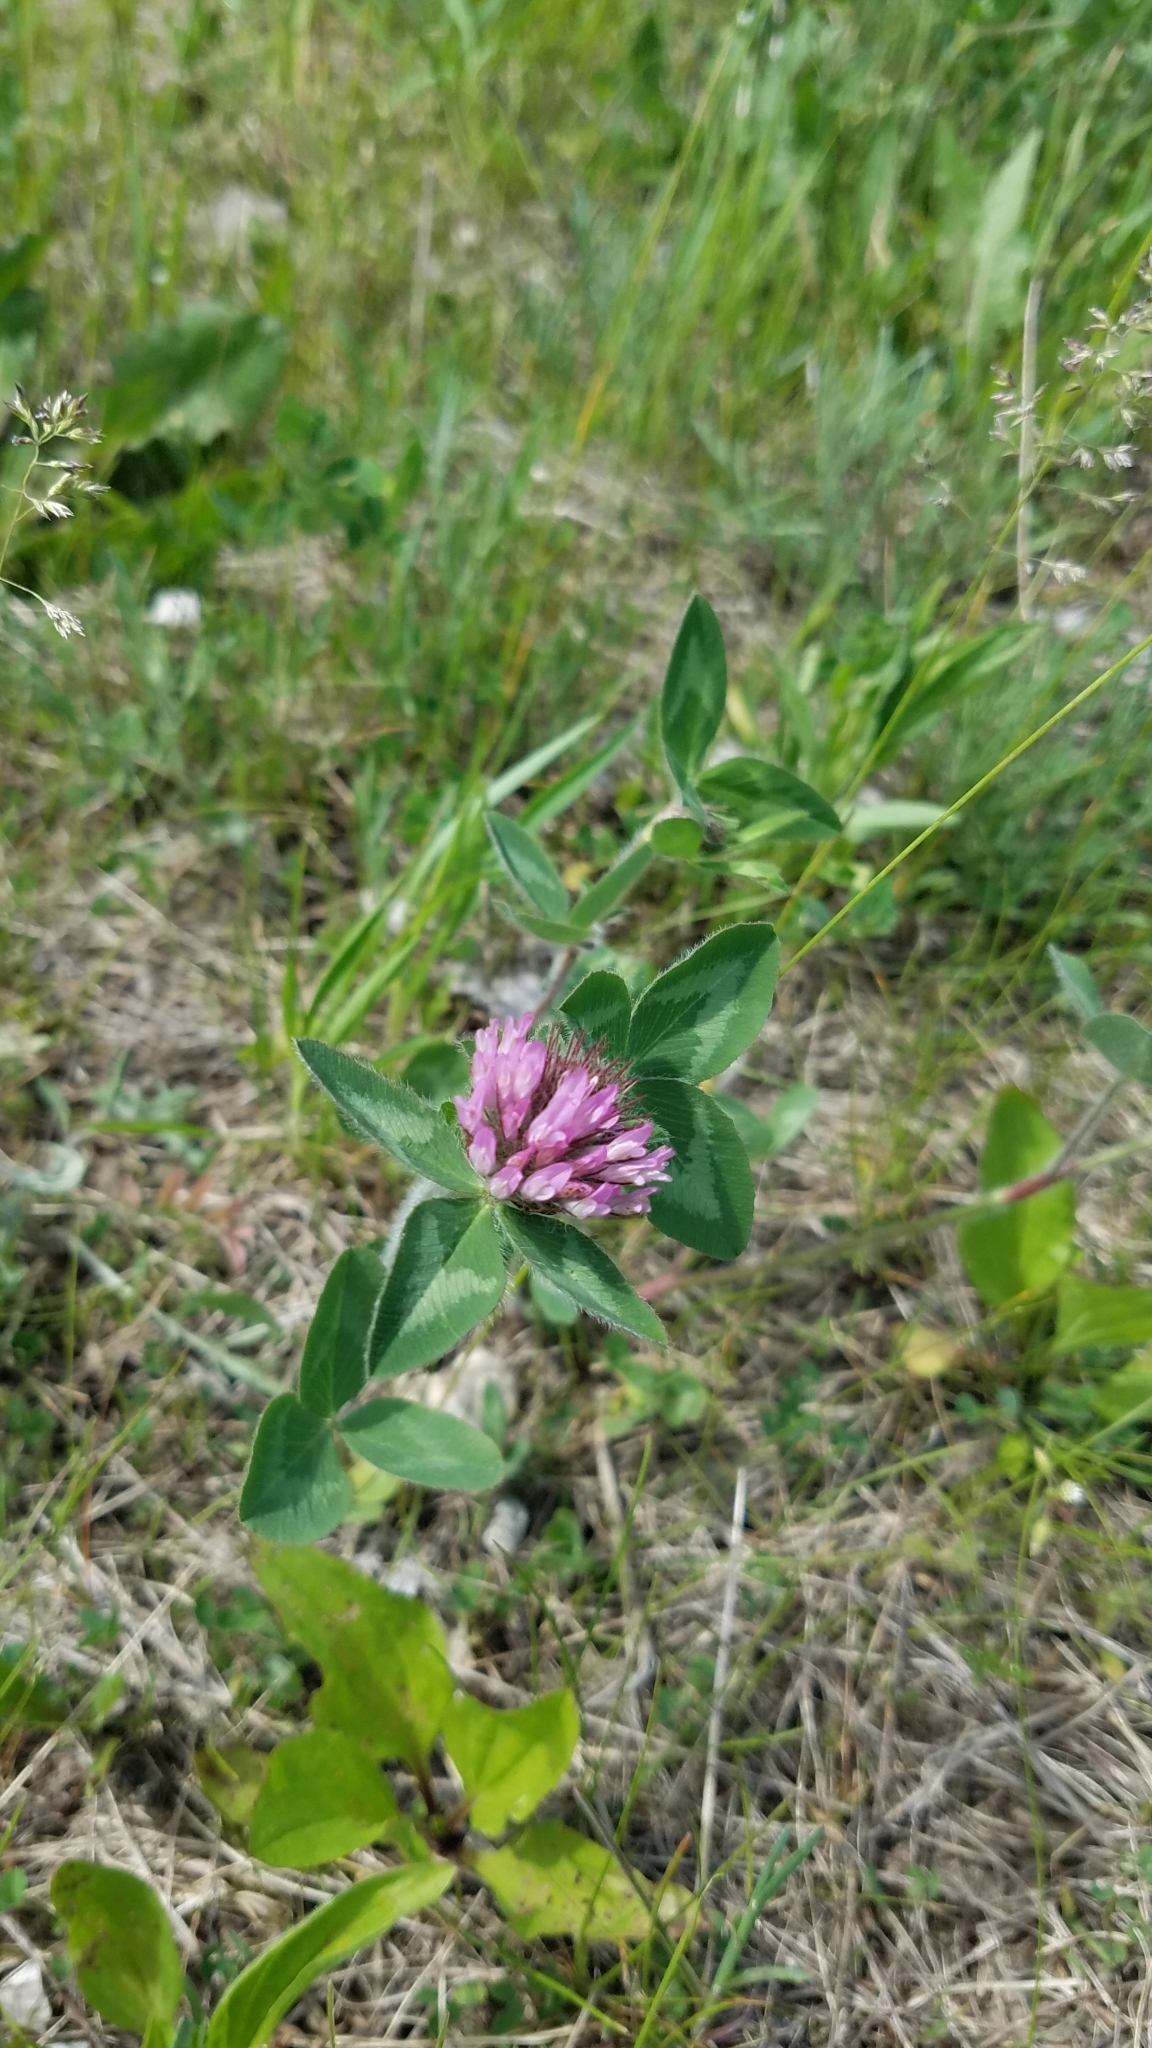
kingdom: Plantae
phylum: Tracheophyta
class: Magnoliopsida
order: Fabales
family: Fabaceae
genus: Trifolium
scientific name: Trifolium pratense
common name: Red clover
